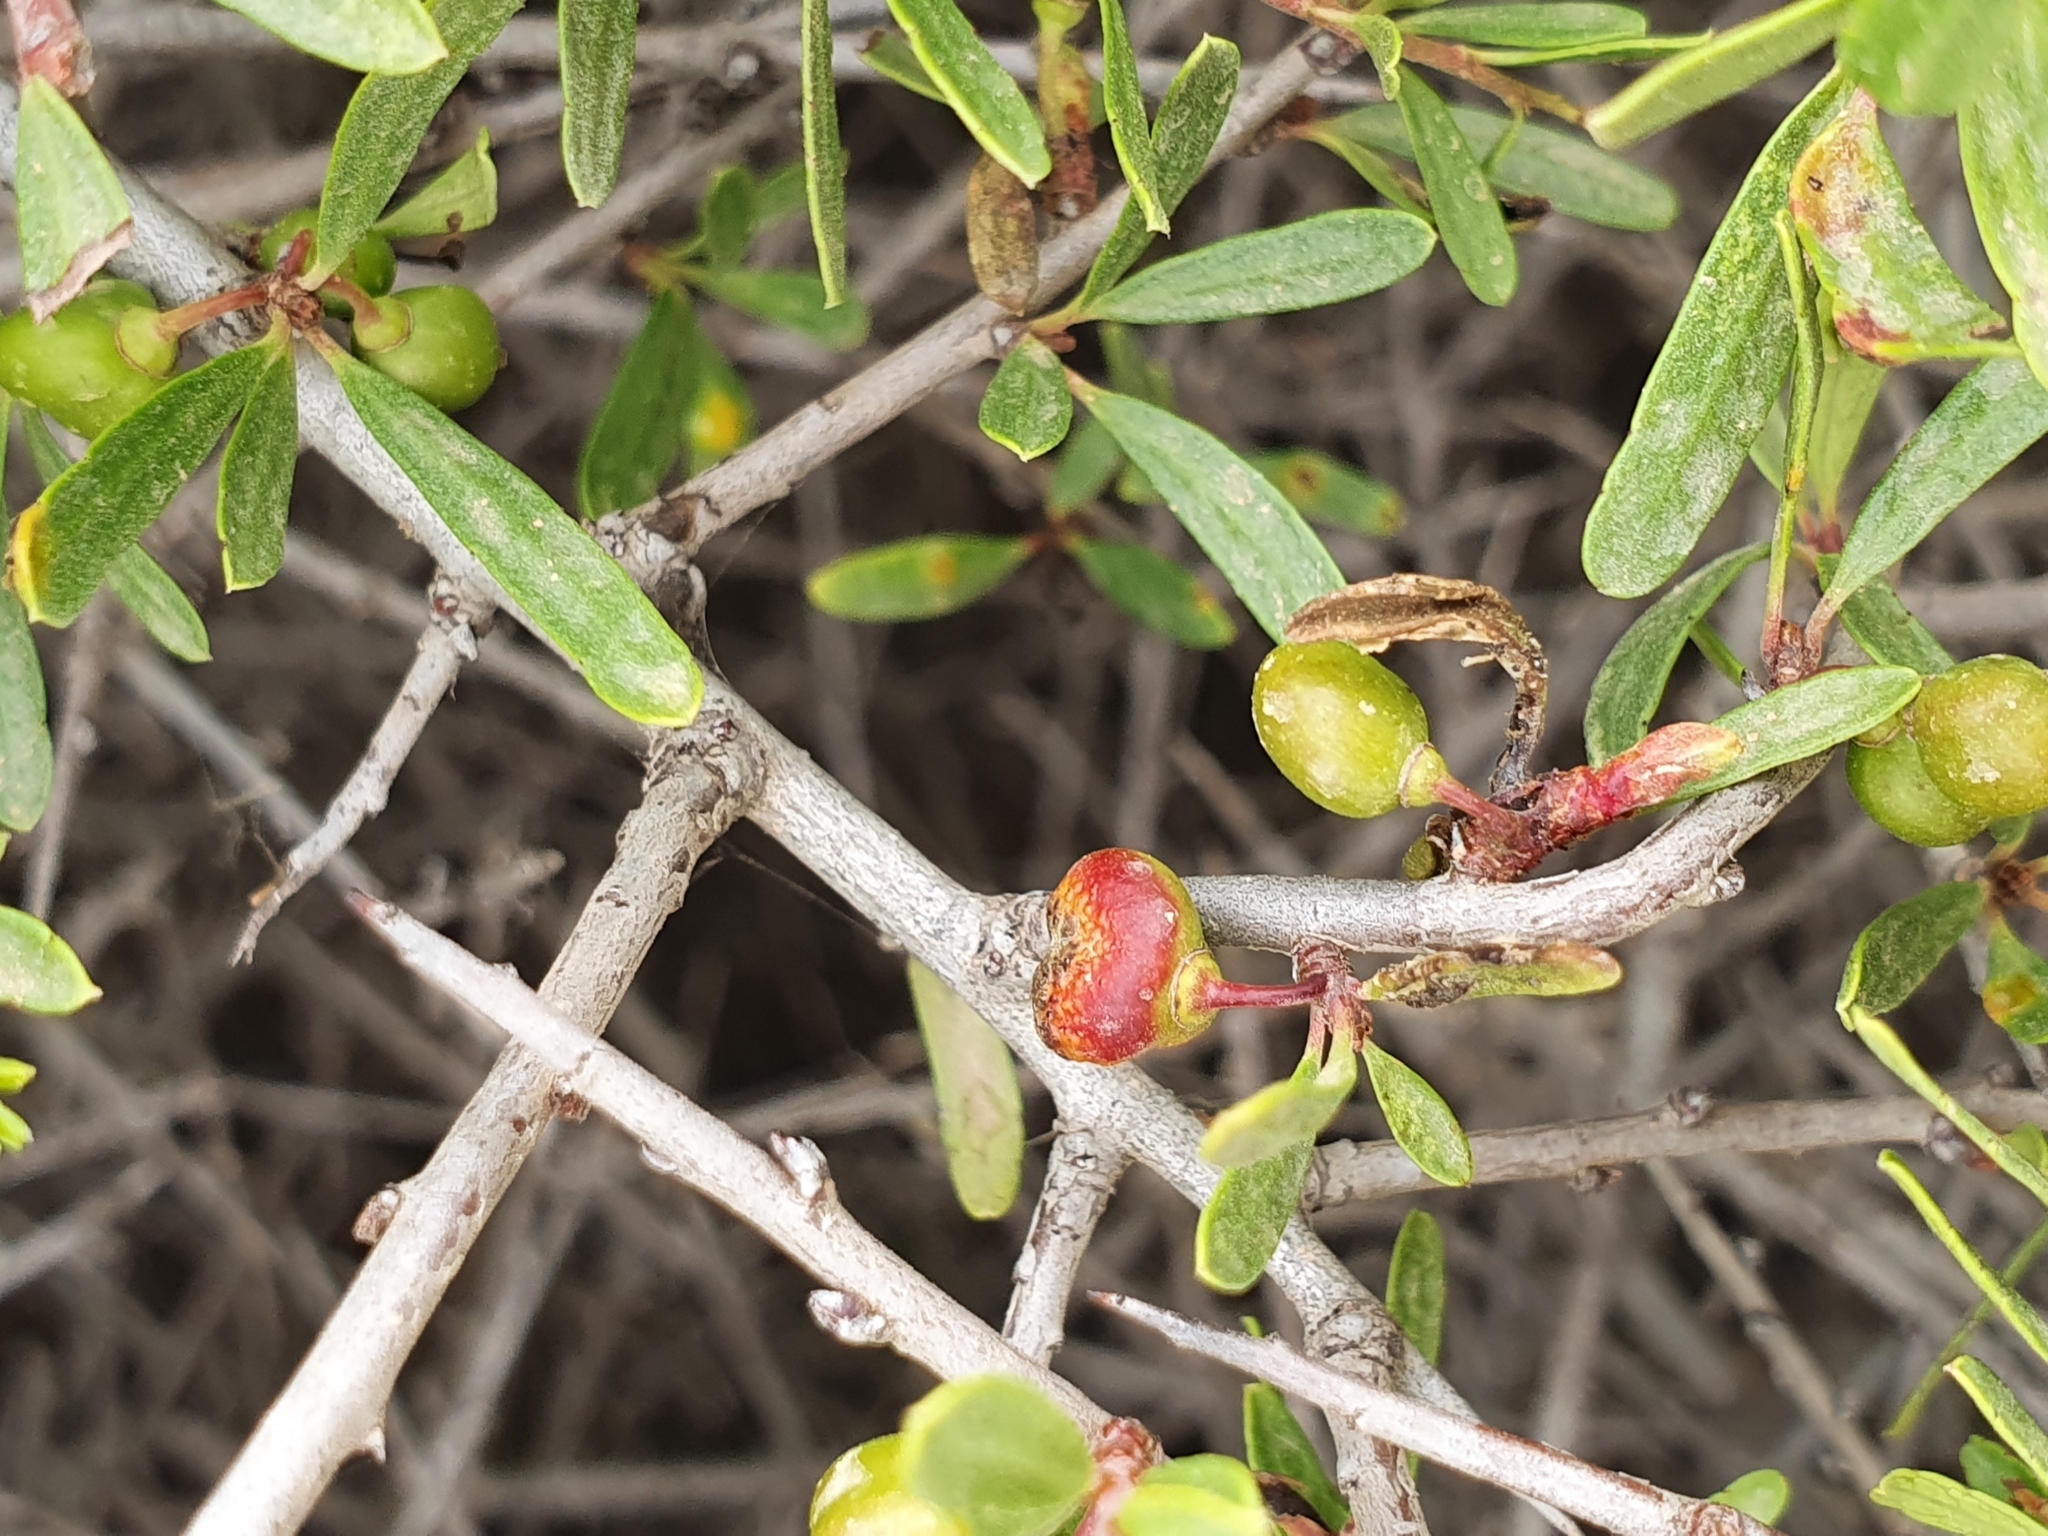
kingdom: Plantae
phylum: Tracheophyta
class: Magnoliopsida
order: Rosales
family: Rhamnaceae
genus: Rhamnus
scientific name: Rhamnus lycioides
